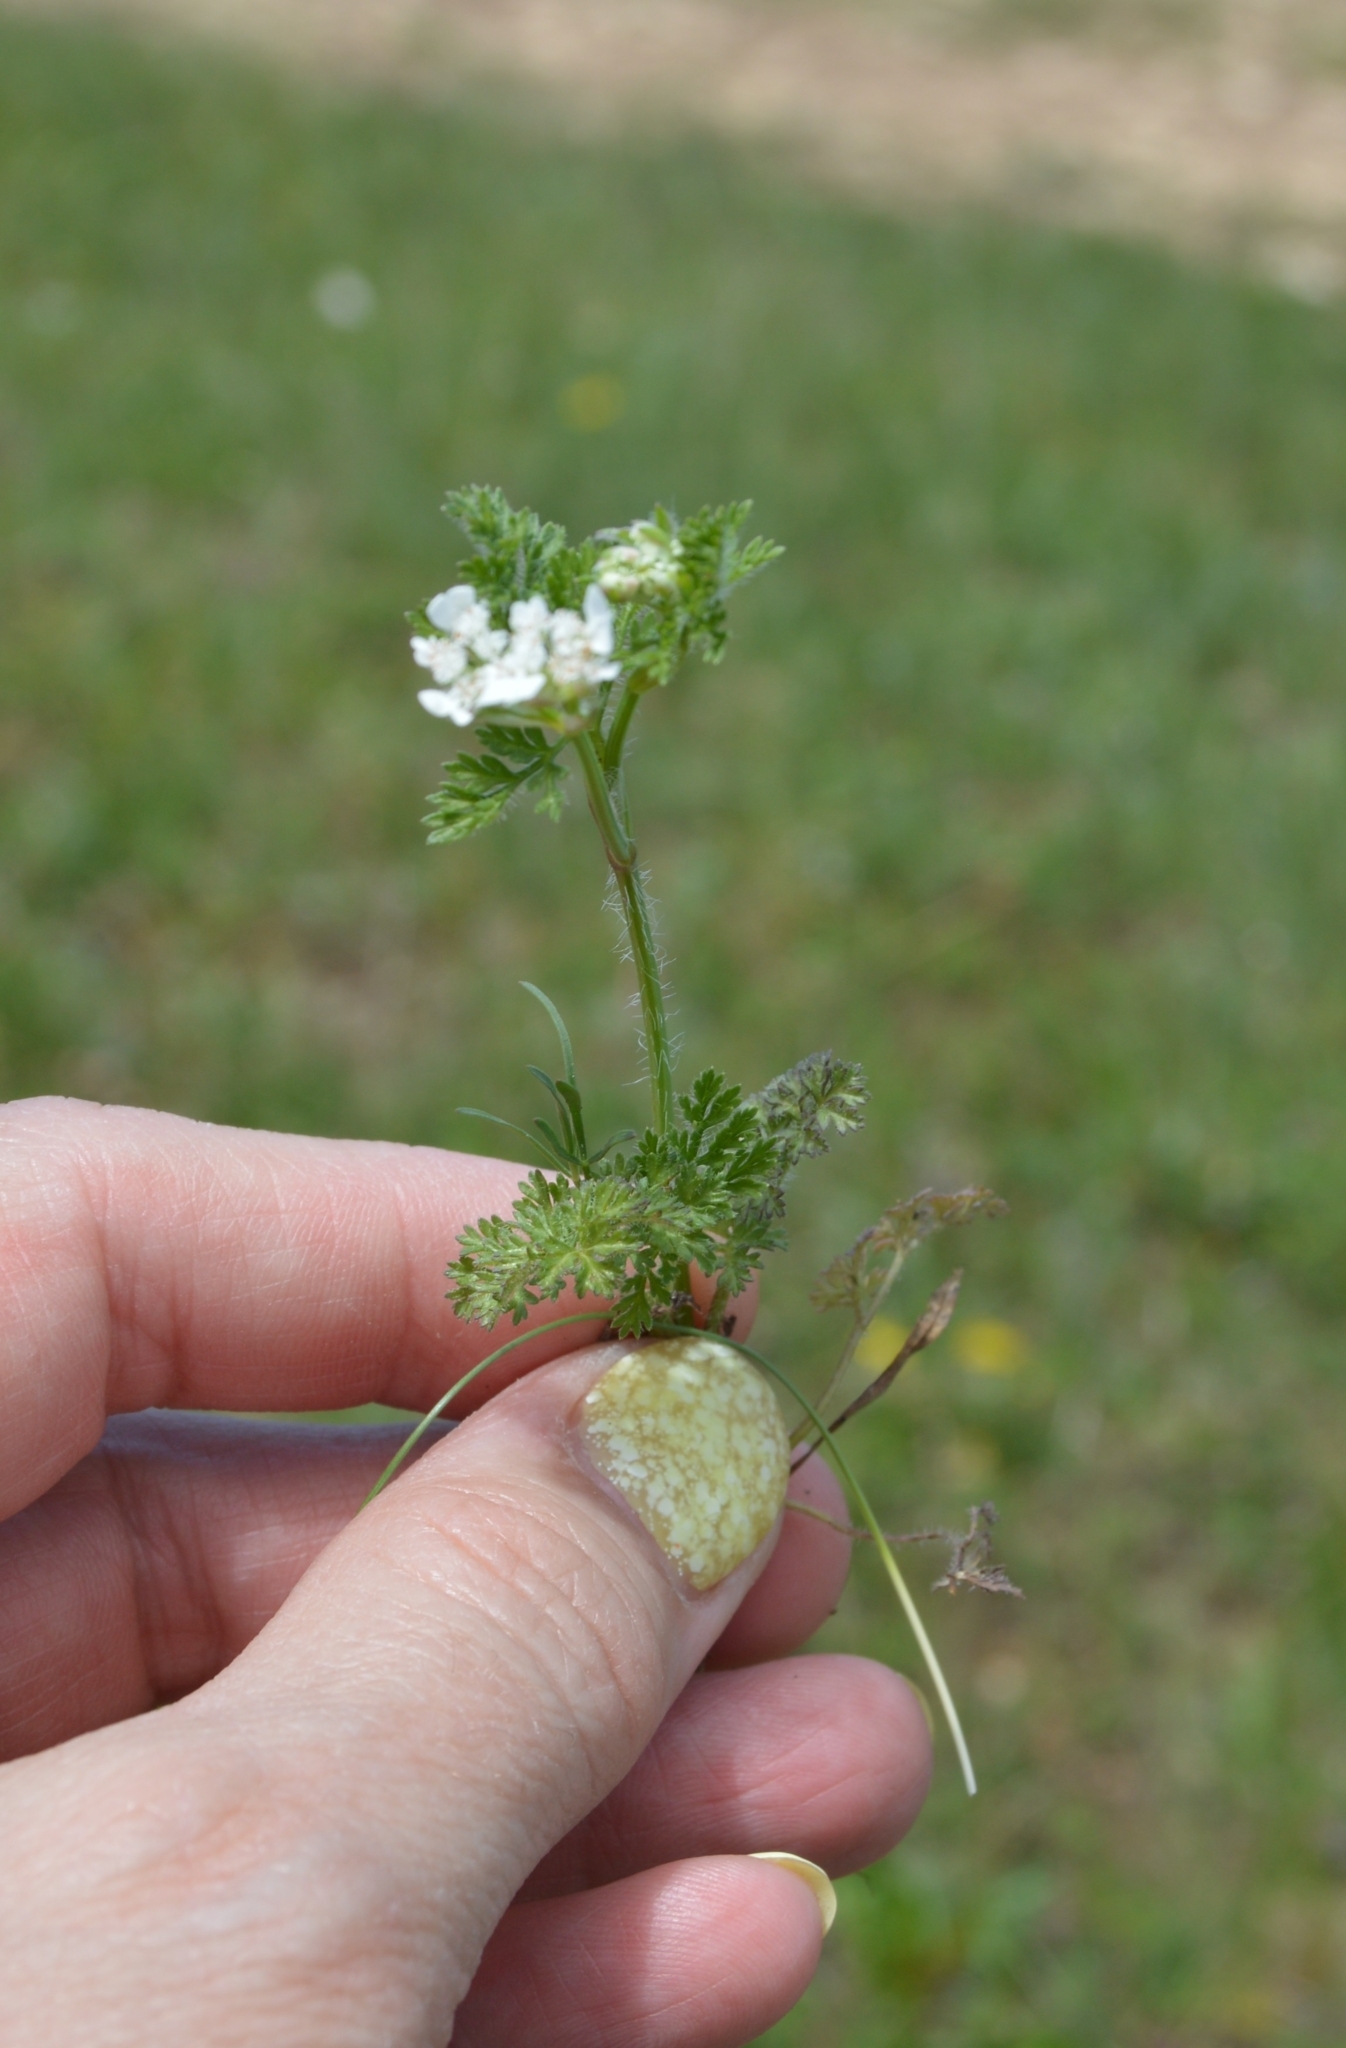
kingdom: Plantae
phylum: Tracheophyta
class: Magnoliopsida
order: Apiales
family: Apiaceae
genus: Orlaya
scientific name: Orlaya daucoides
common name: Flat-fruit orlaya
